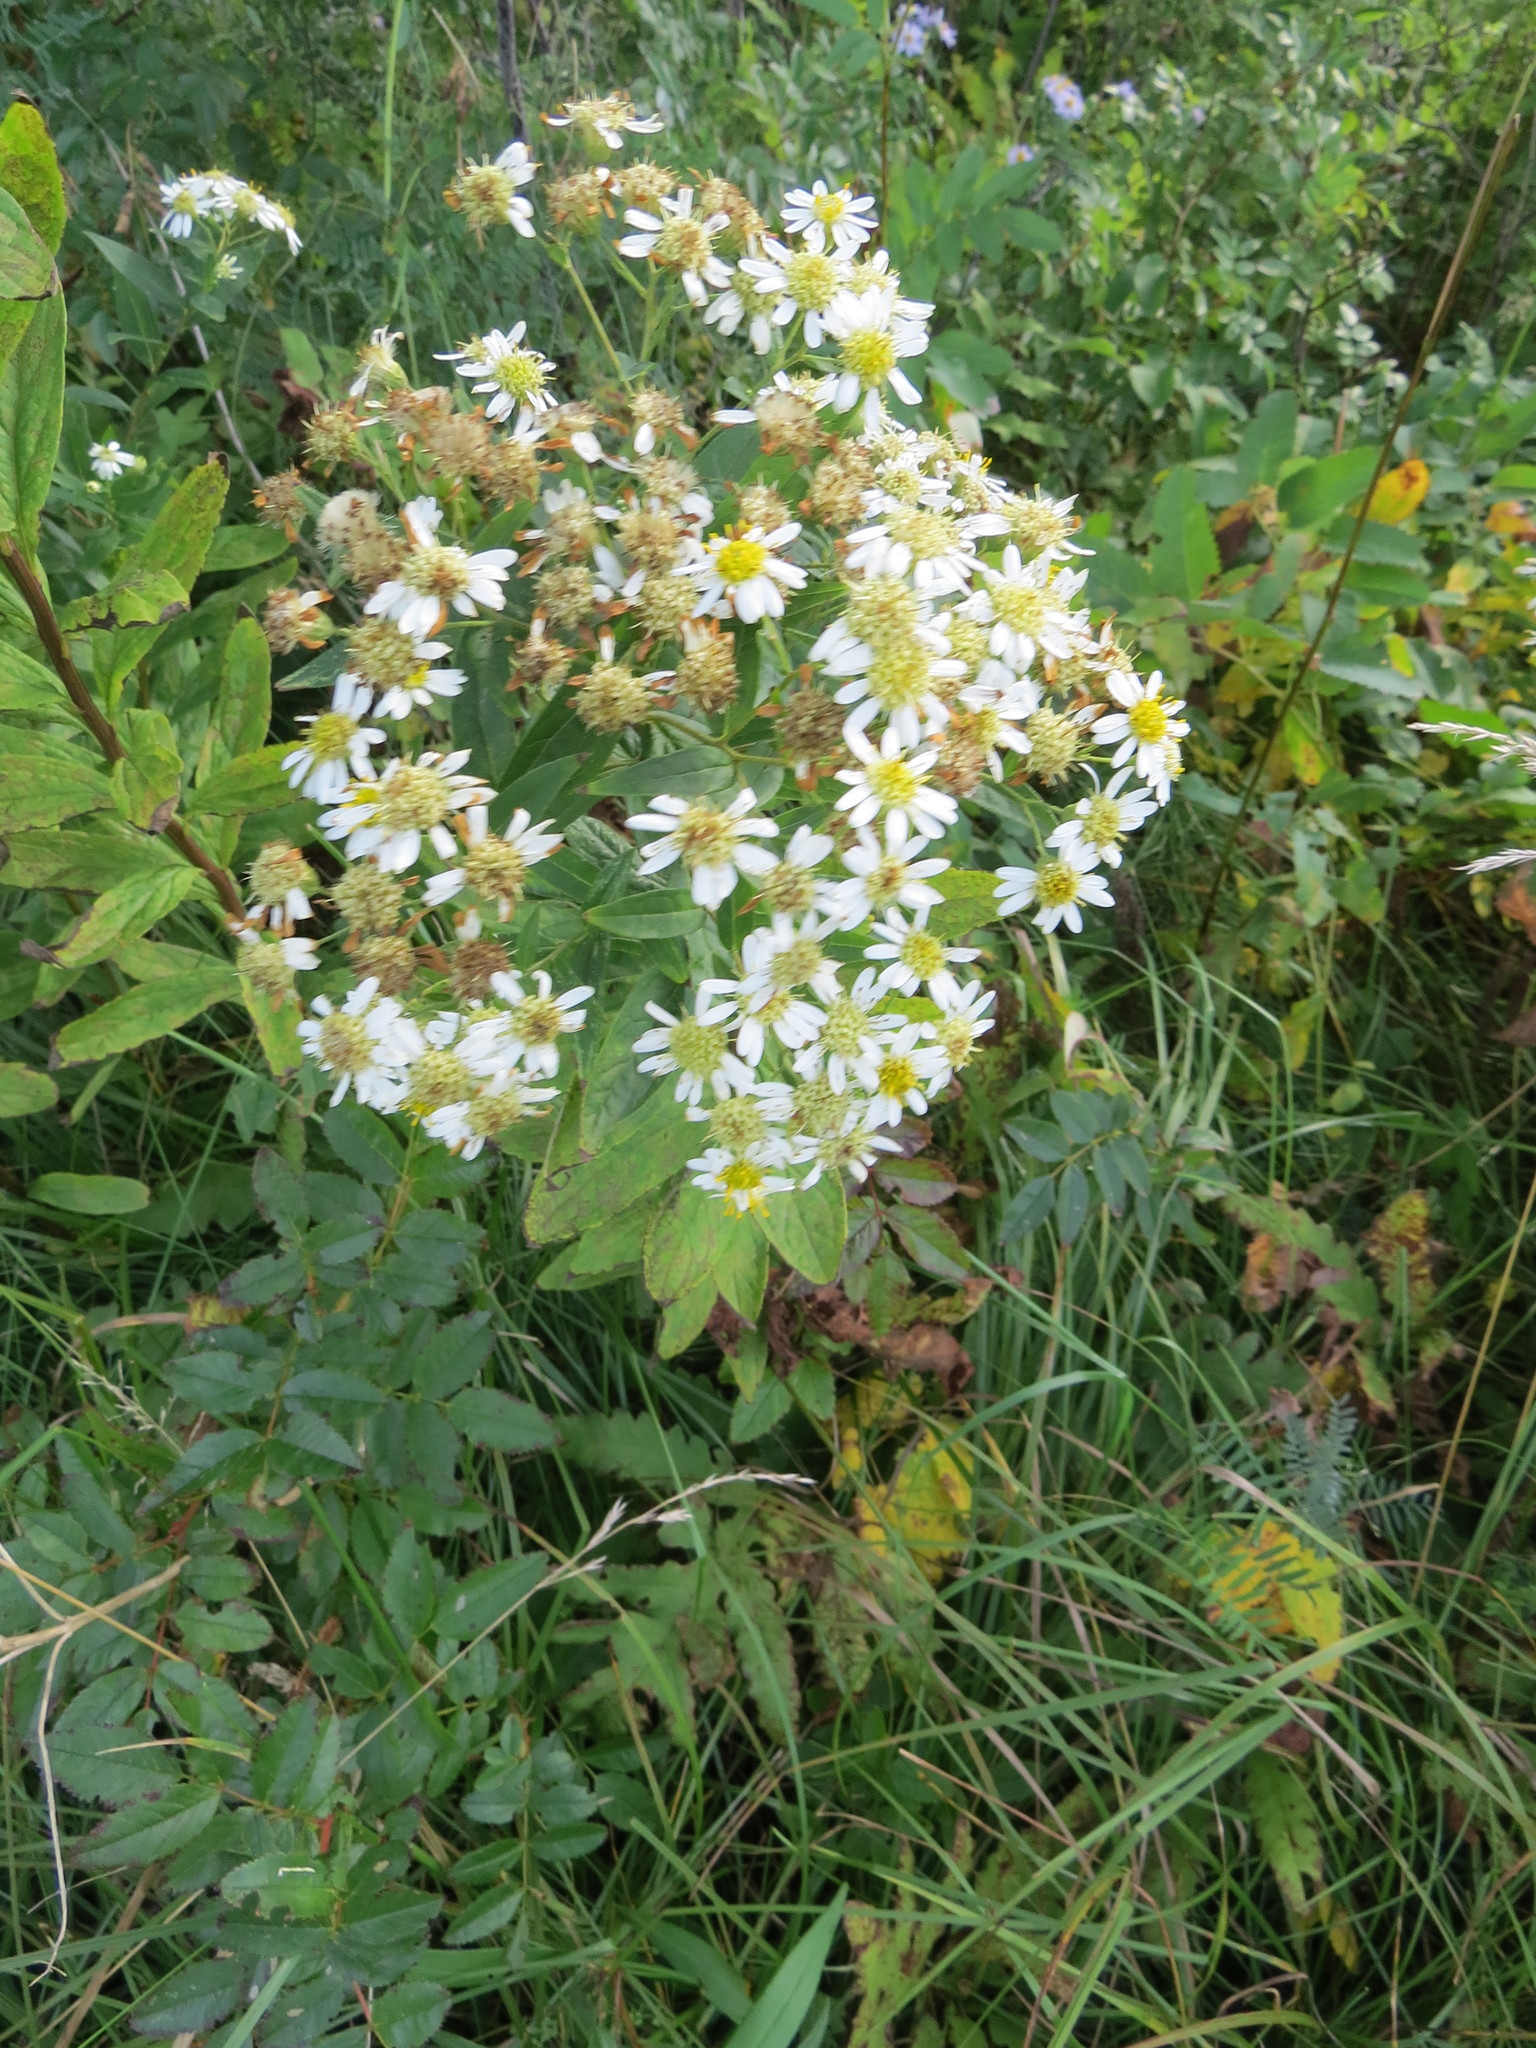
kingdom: Plantae
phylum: Tracheophyta
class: Magnoliopsida
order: Asterales
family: Asteraceae
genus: Doellingeria
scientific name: Doellingeria umbellata
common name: Flat-top white aster
